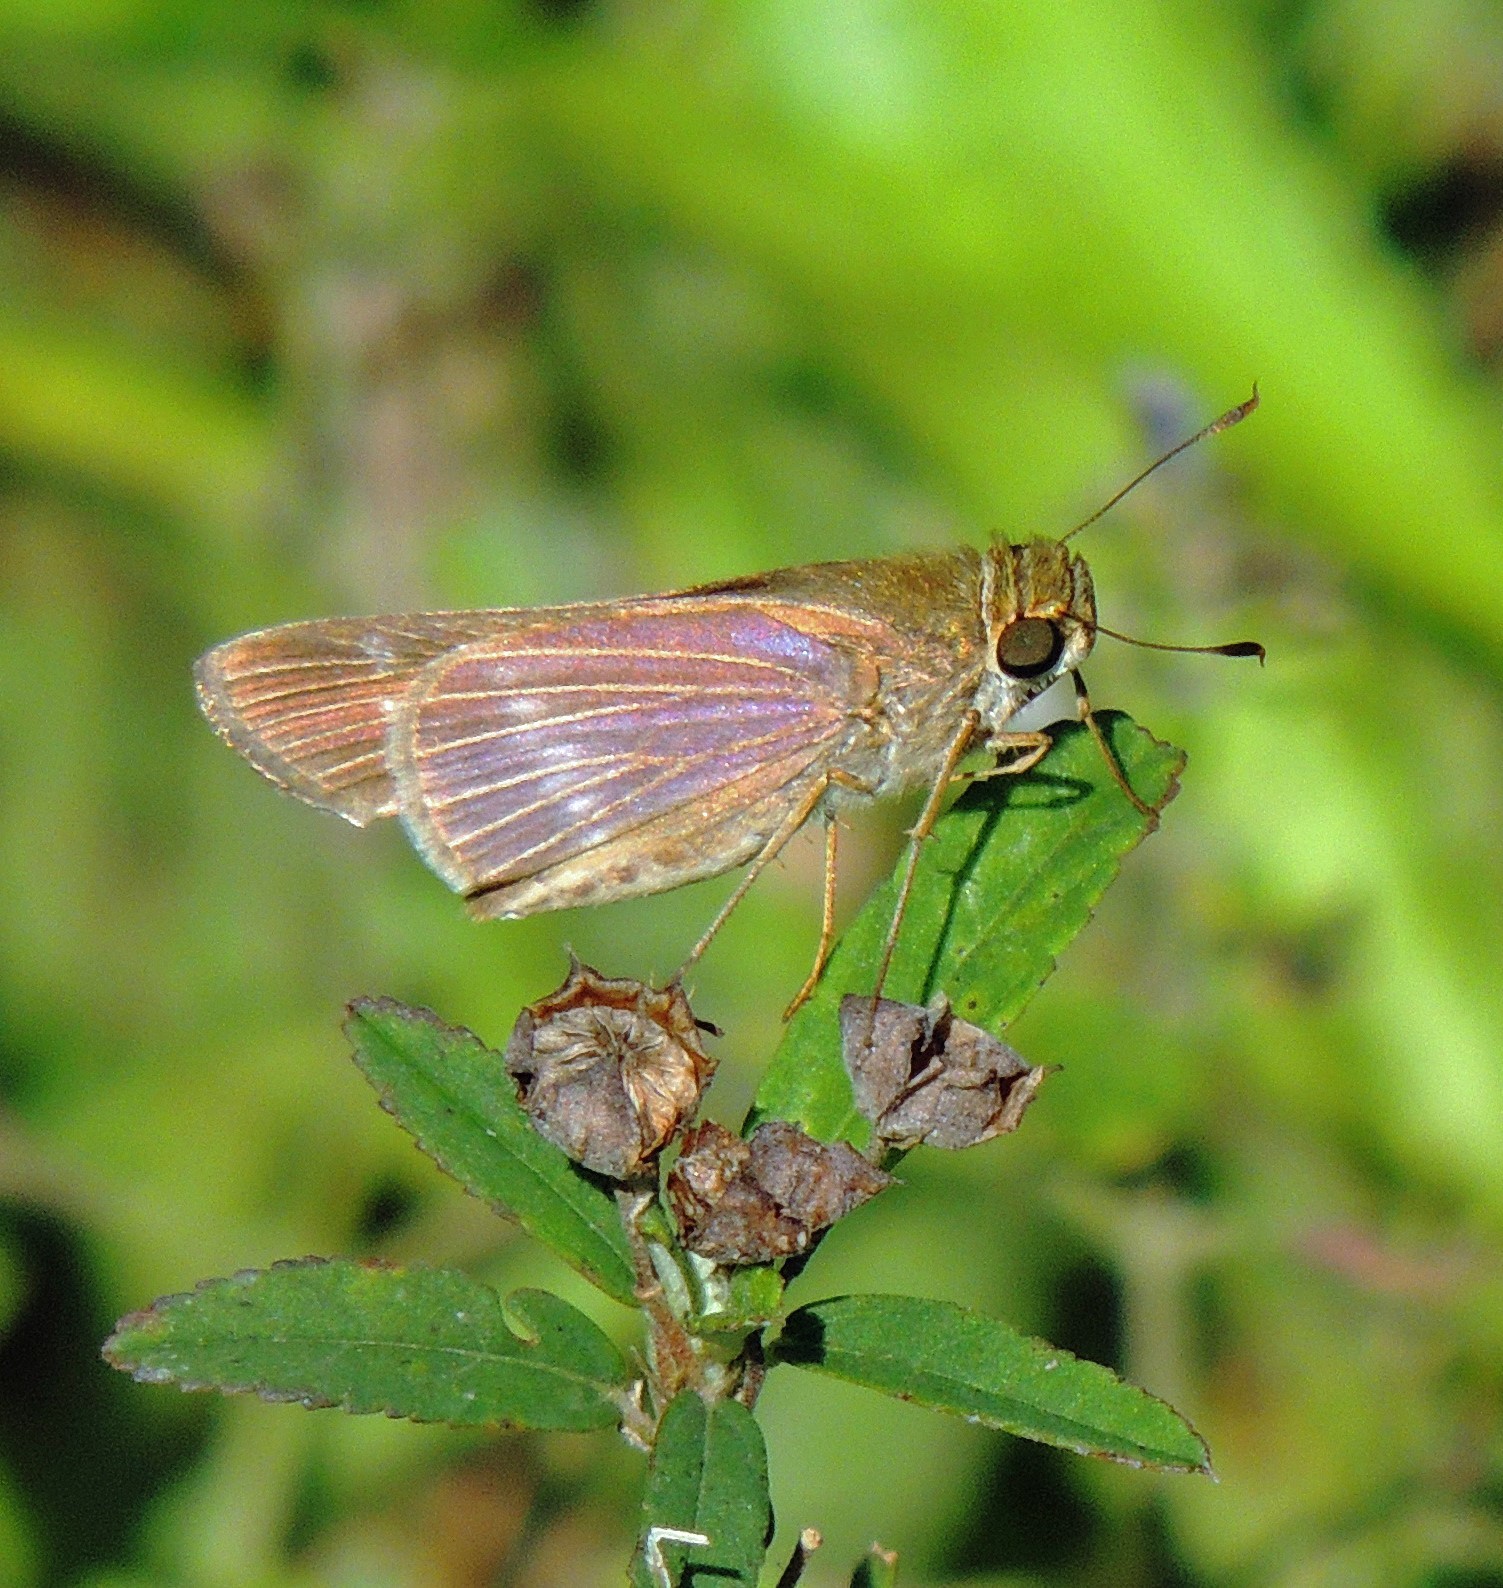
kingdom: Animalia
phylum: Arthropoda
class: Insecta
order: Lepidoptera
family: Hesperiidae
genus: Turesis
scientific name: Turesis lucas
